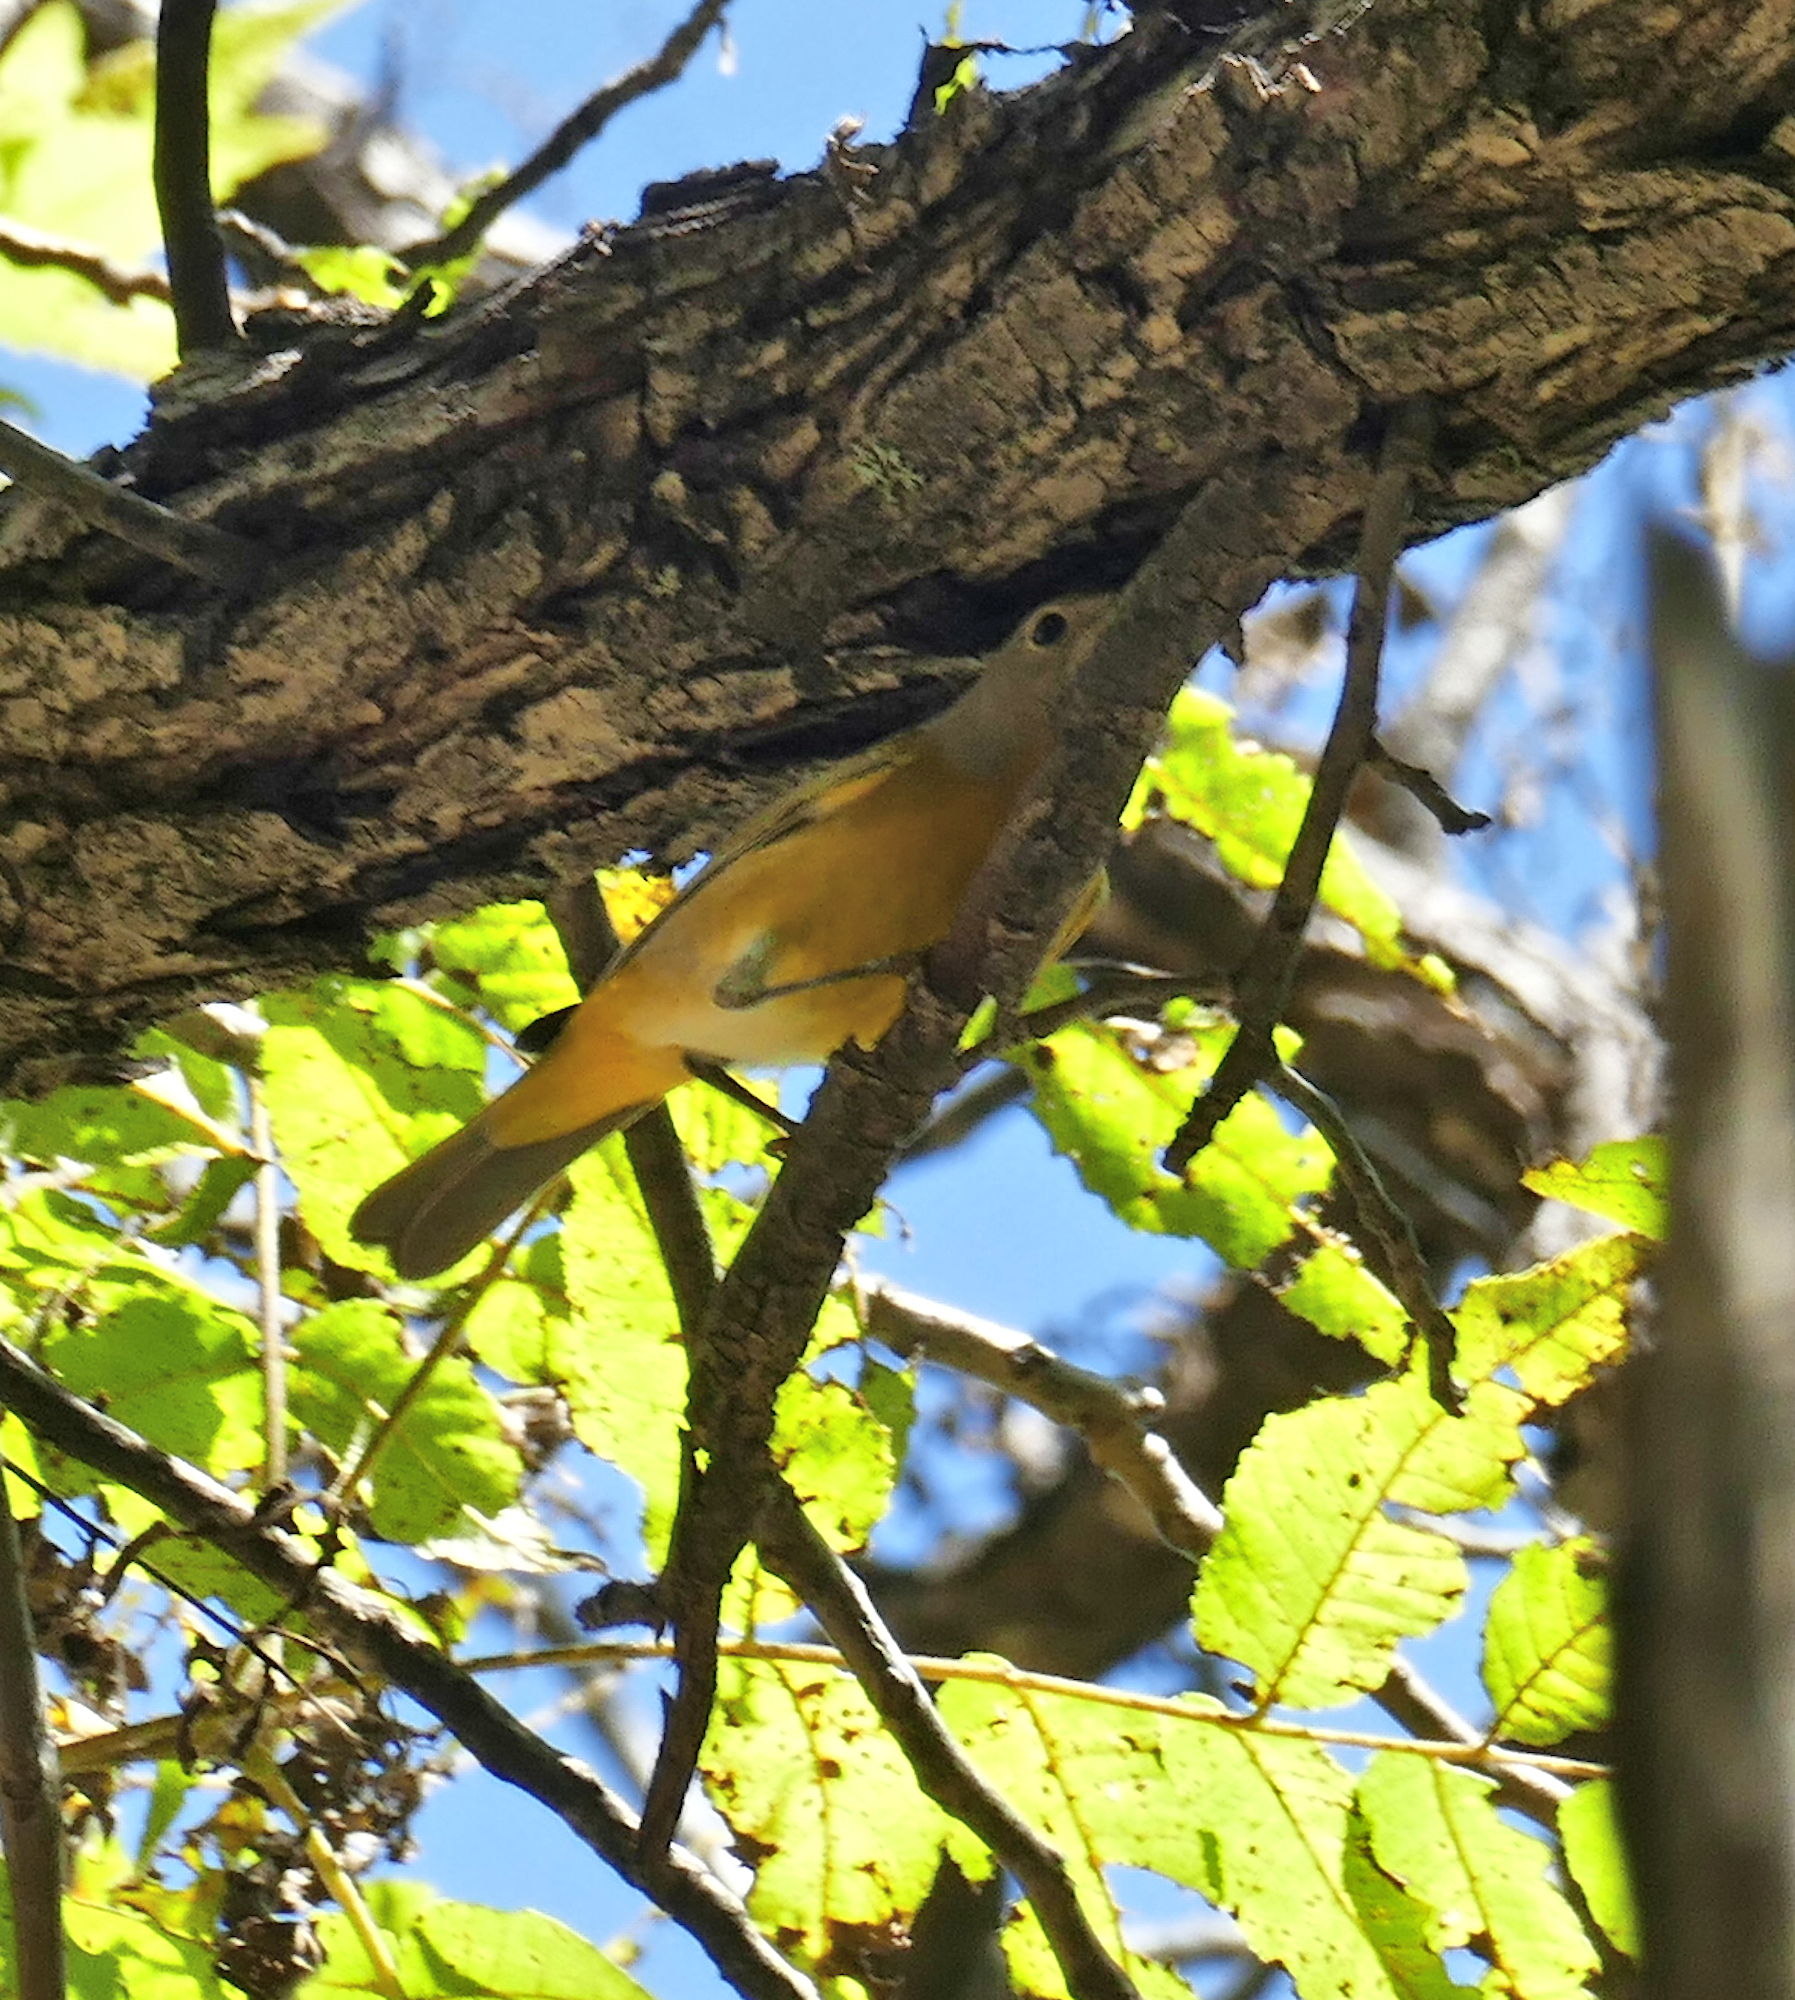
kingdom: Animalia
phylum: Chordata
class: Aves
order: Passeriformes
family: Parulidae
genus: Leiothlypis
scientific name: Leiothlypis ruficapilla
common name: Nashville warbler
